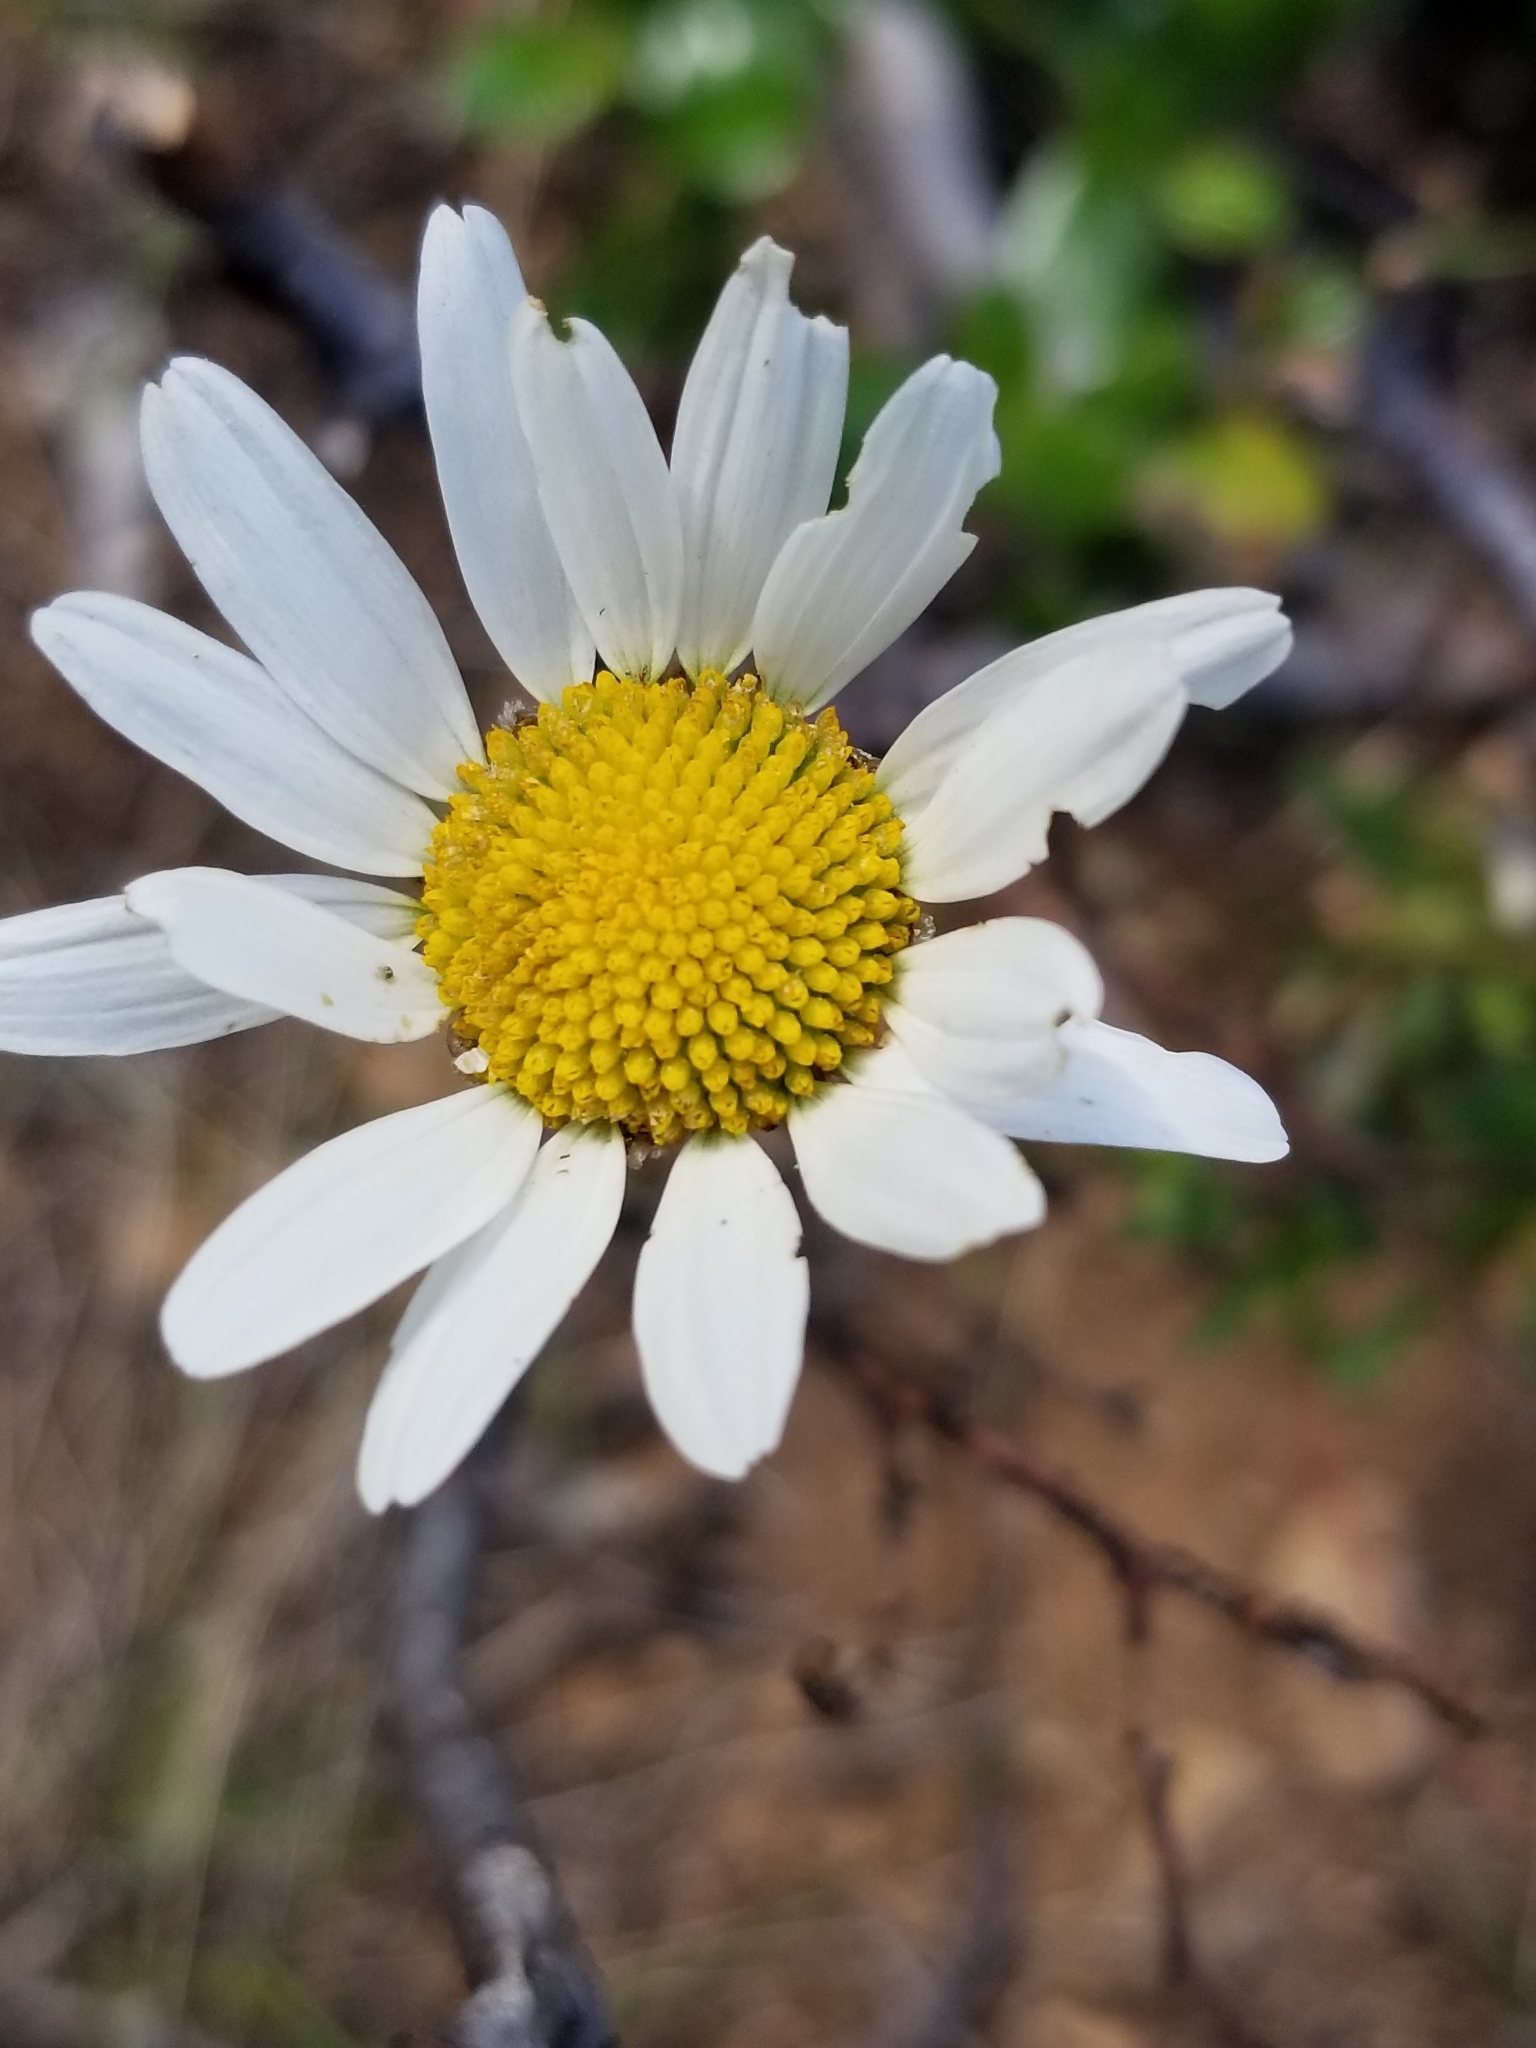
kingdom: Plantae
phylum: Tracheophyta
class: Magnoliopsida
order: Asterales
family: Asteraceae
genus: Leucanthemum
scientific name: Leucanthemum vulgare
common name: Oxeye daisy
